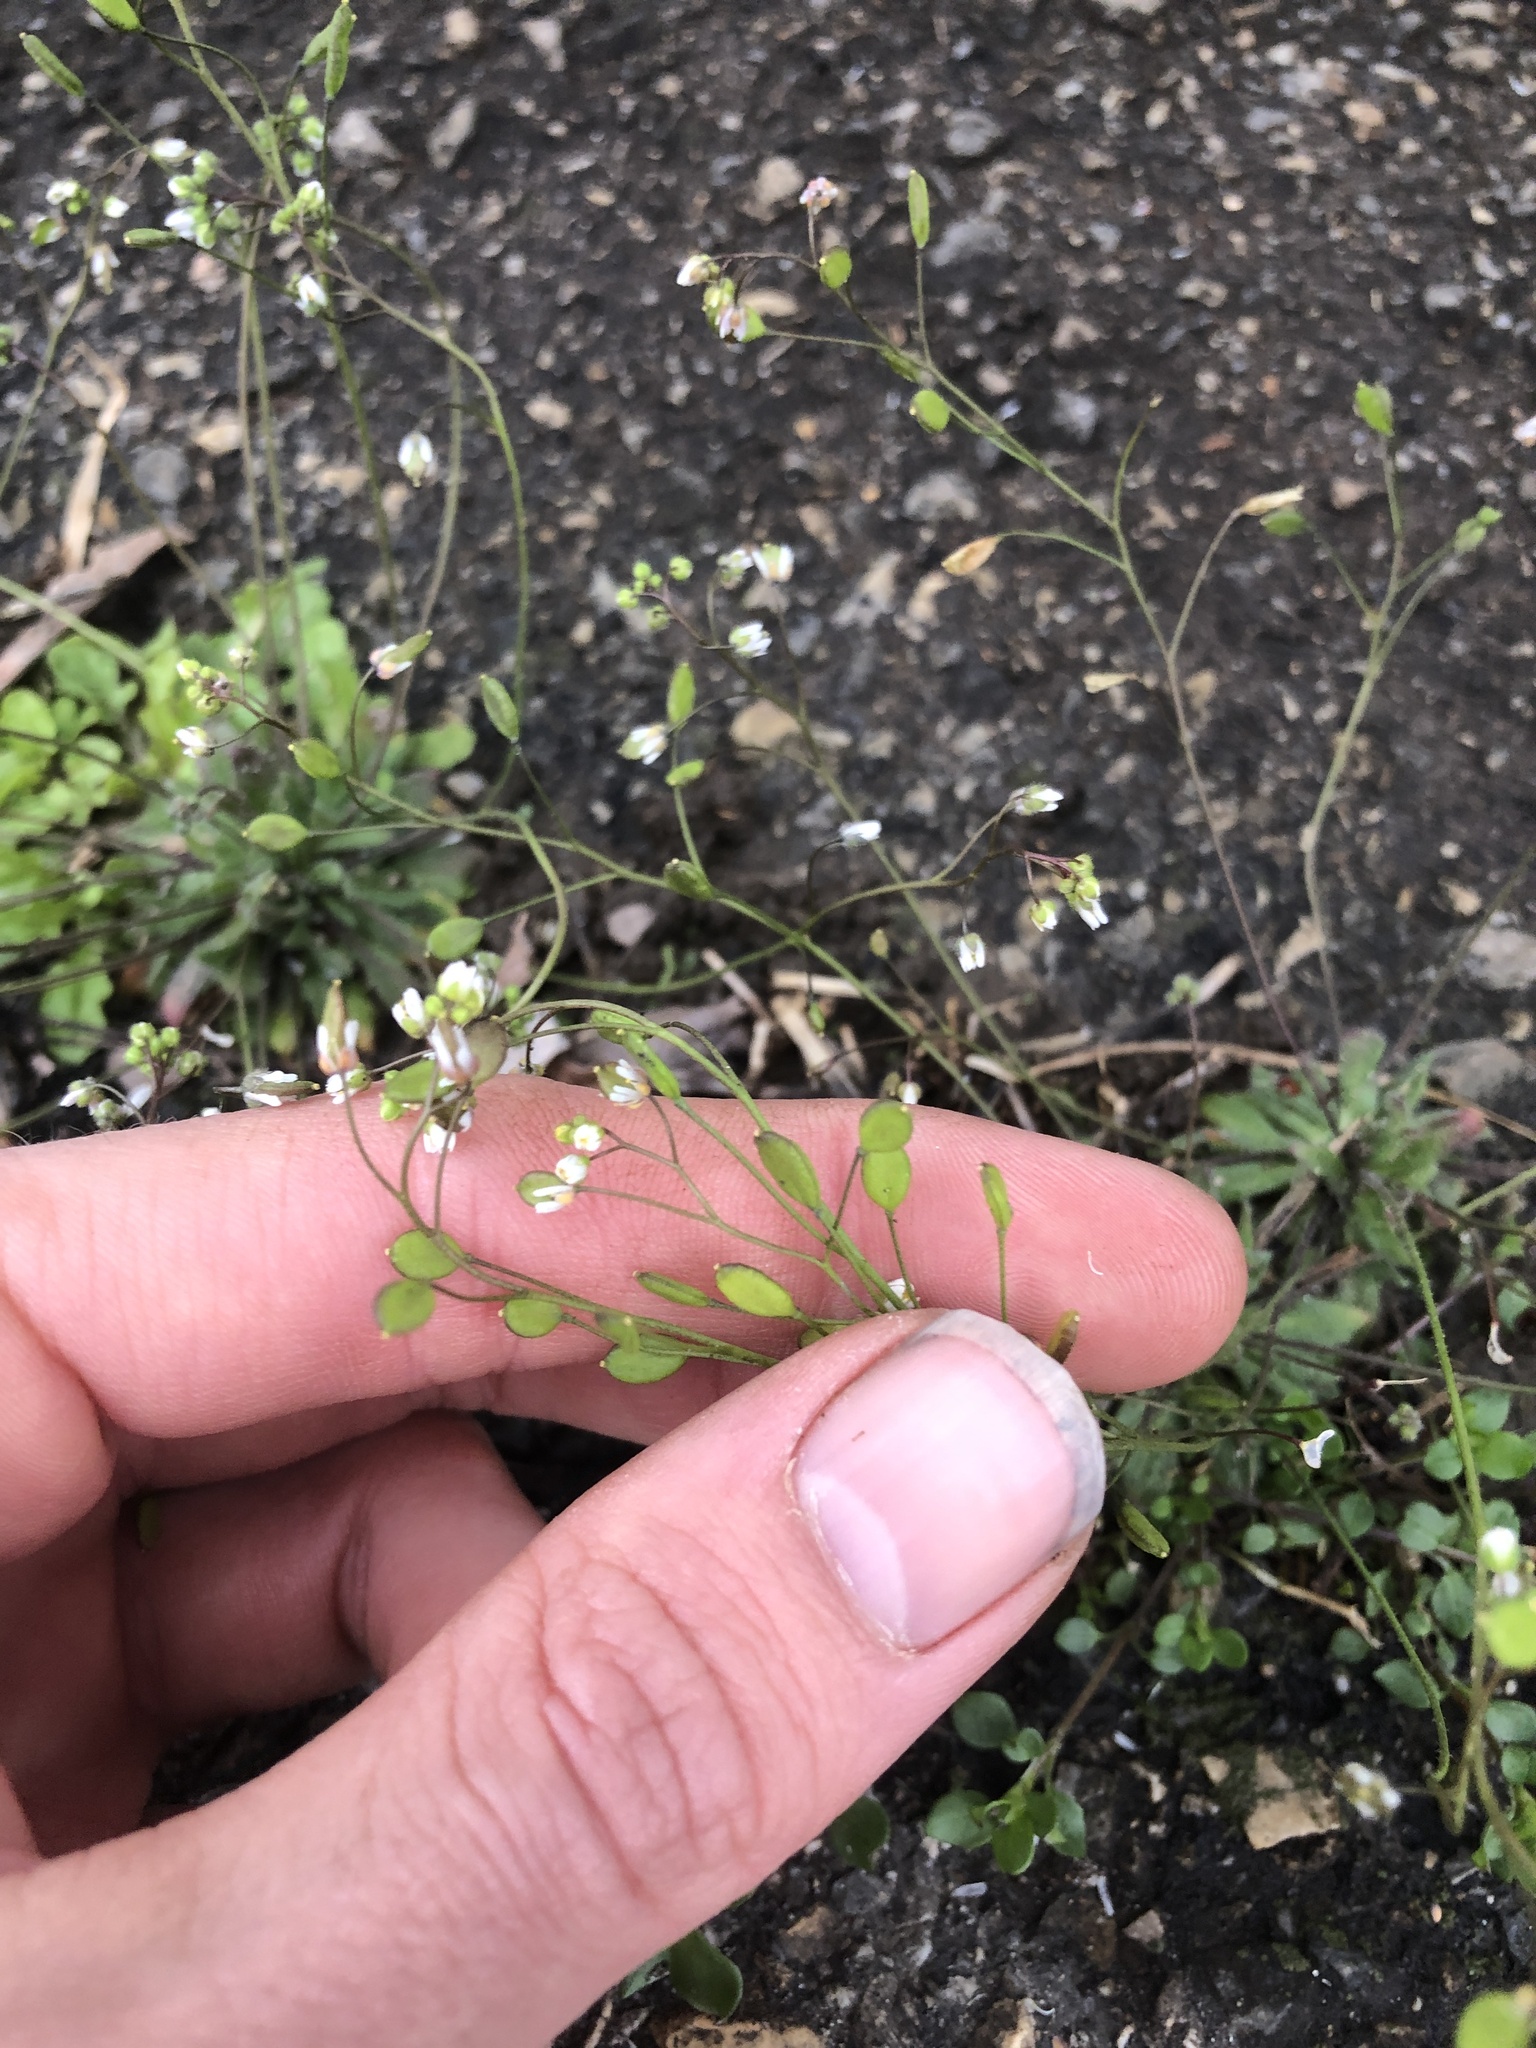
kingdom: Plantae
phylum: Tracheophyta
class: Magnoliopsida
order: Brassicales
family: Brassicaceae
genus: Draba
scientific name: Draba verna
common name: Spring draba
